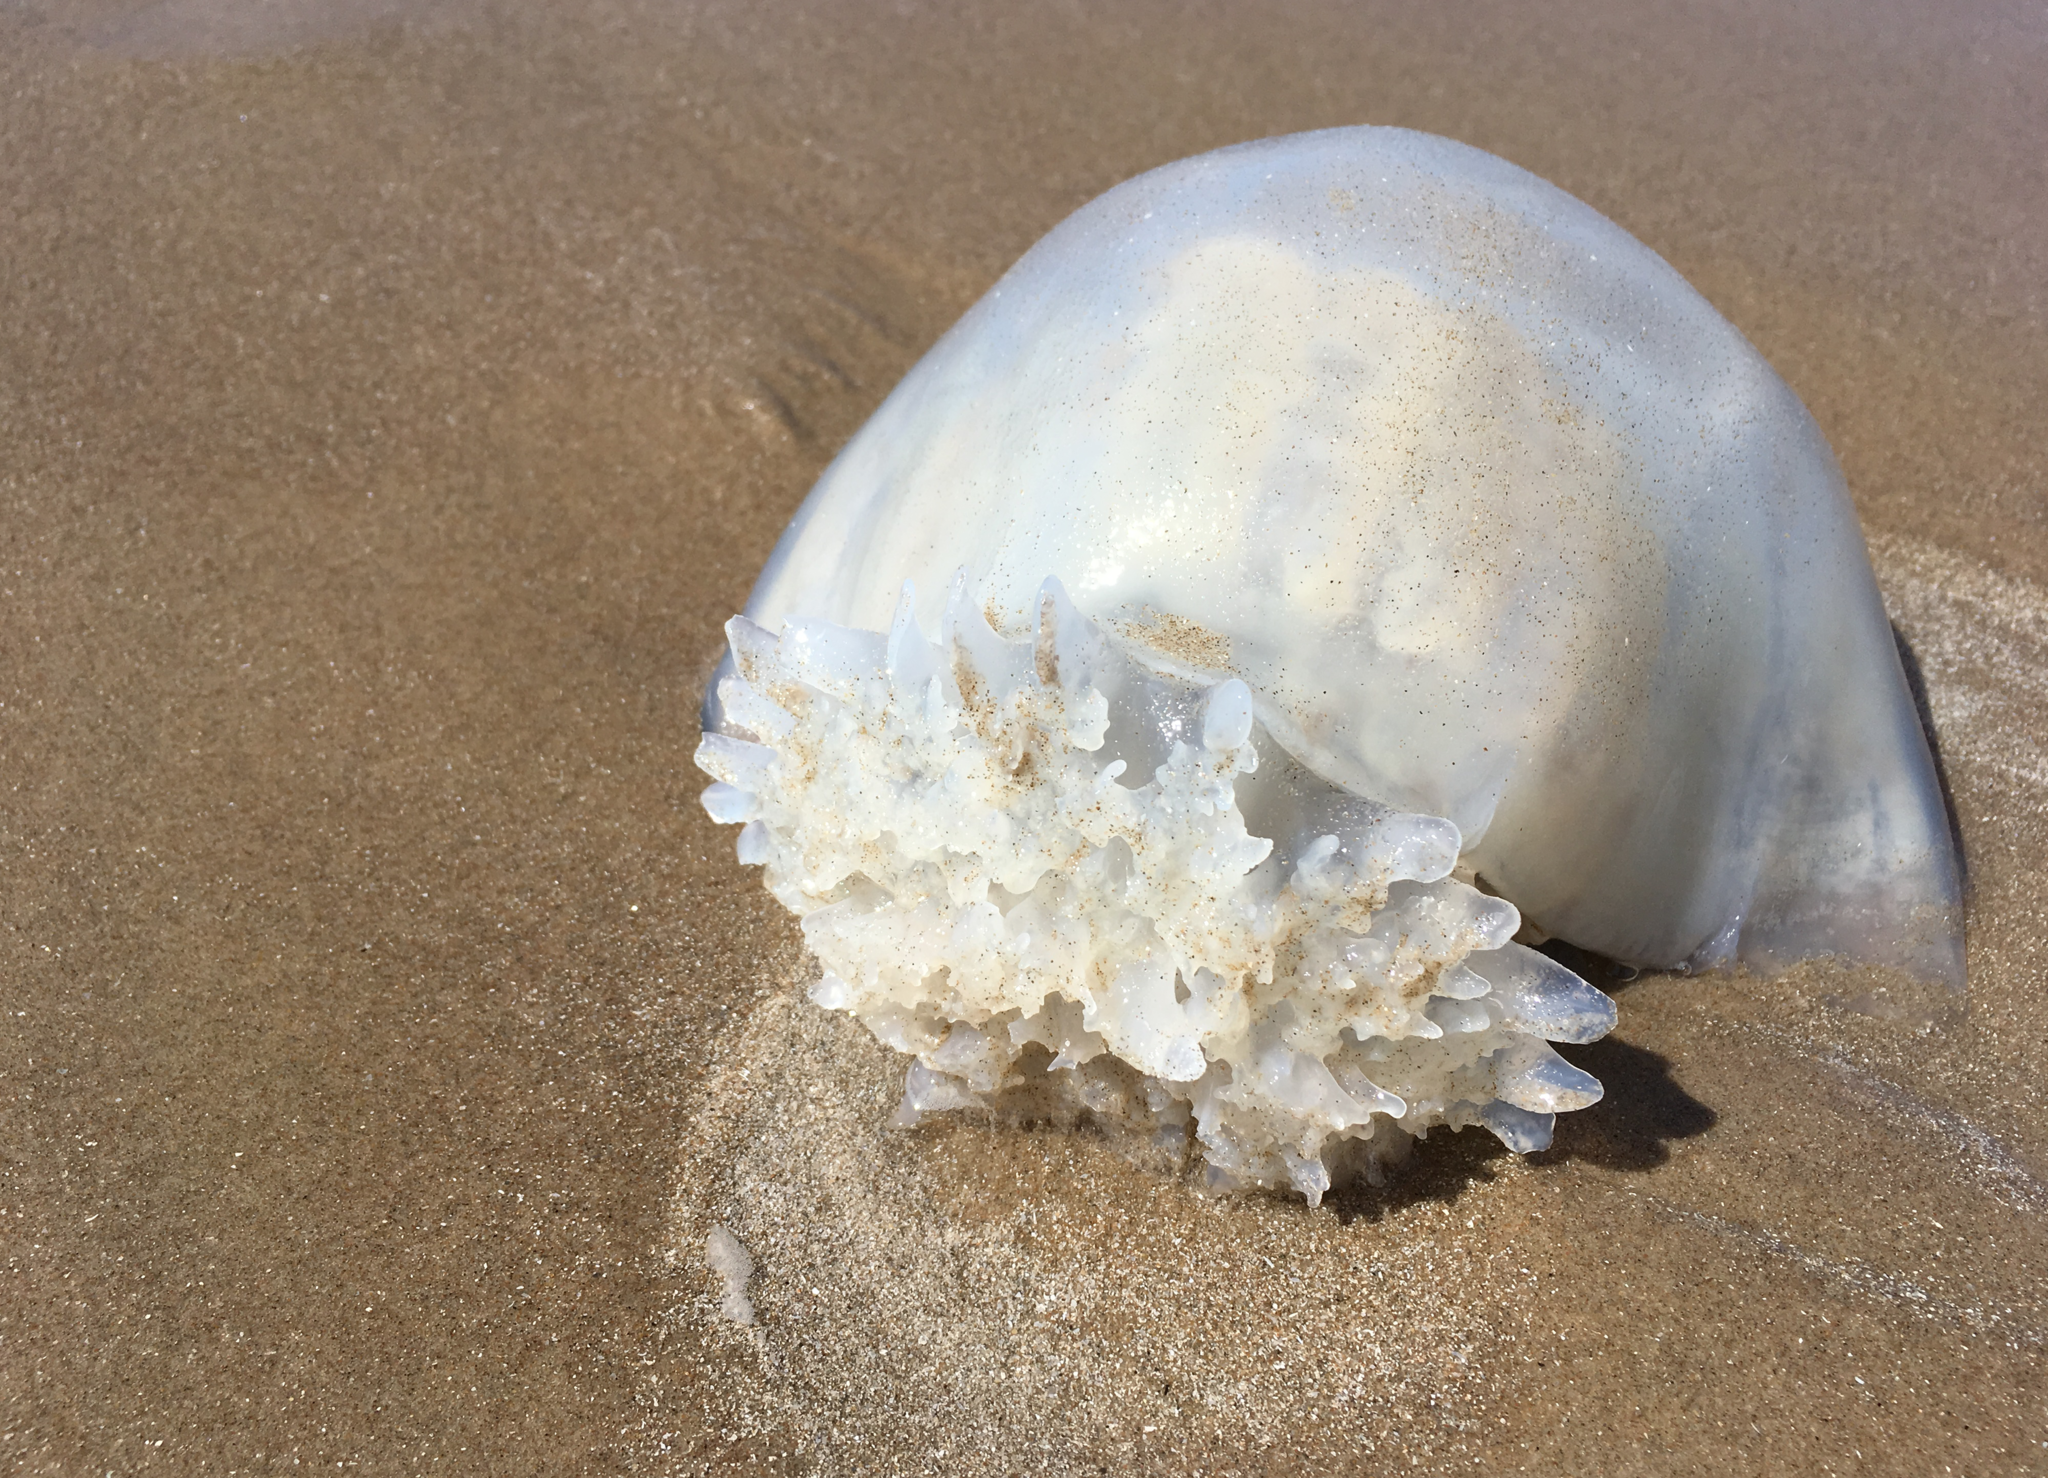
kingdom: Animalia
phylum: Cnidaria
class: Scyphozoa
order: Rhizostomeae
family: Stomolophidae
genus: Stomolophus
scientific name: Stomolophus meleagris
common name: Cabbagehead
